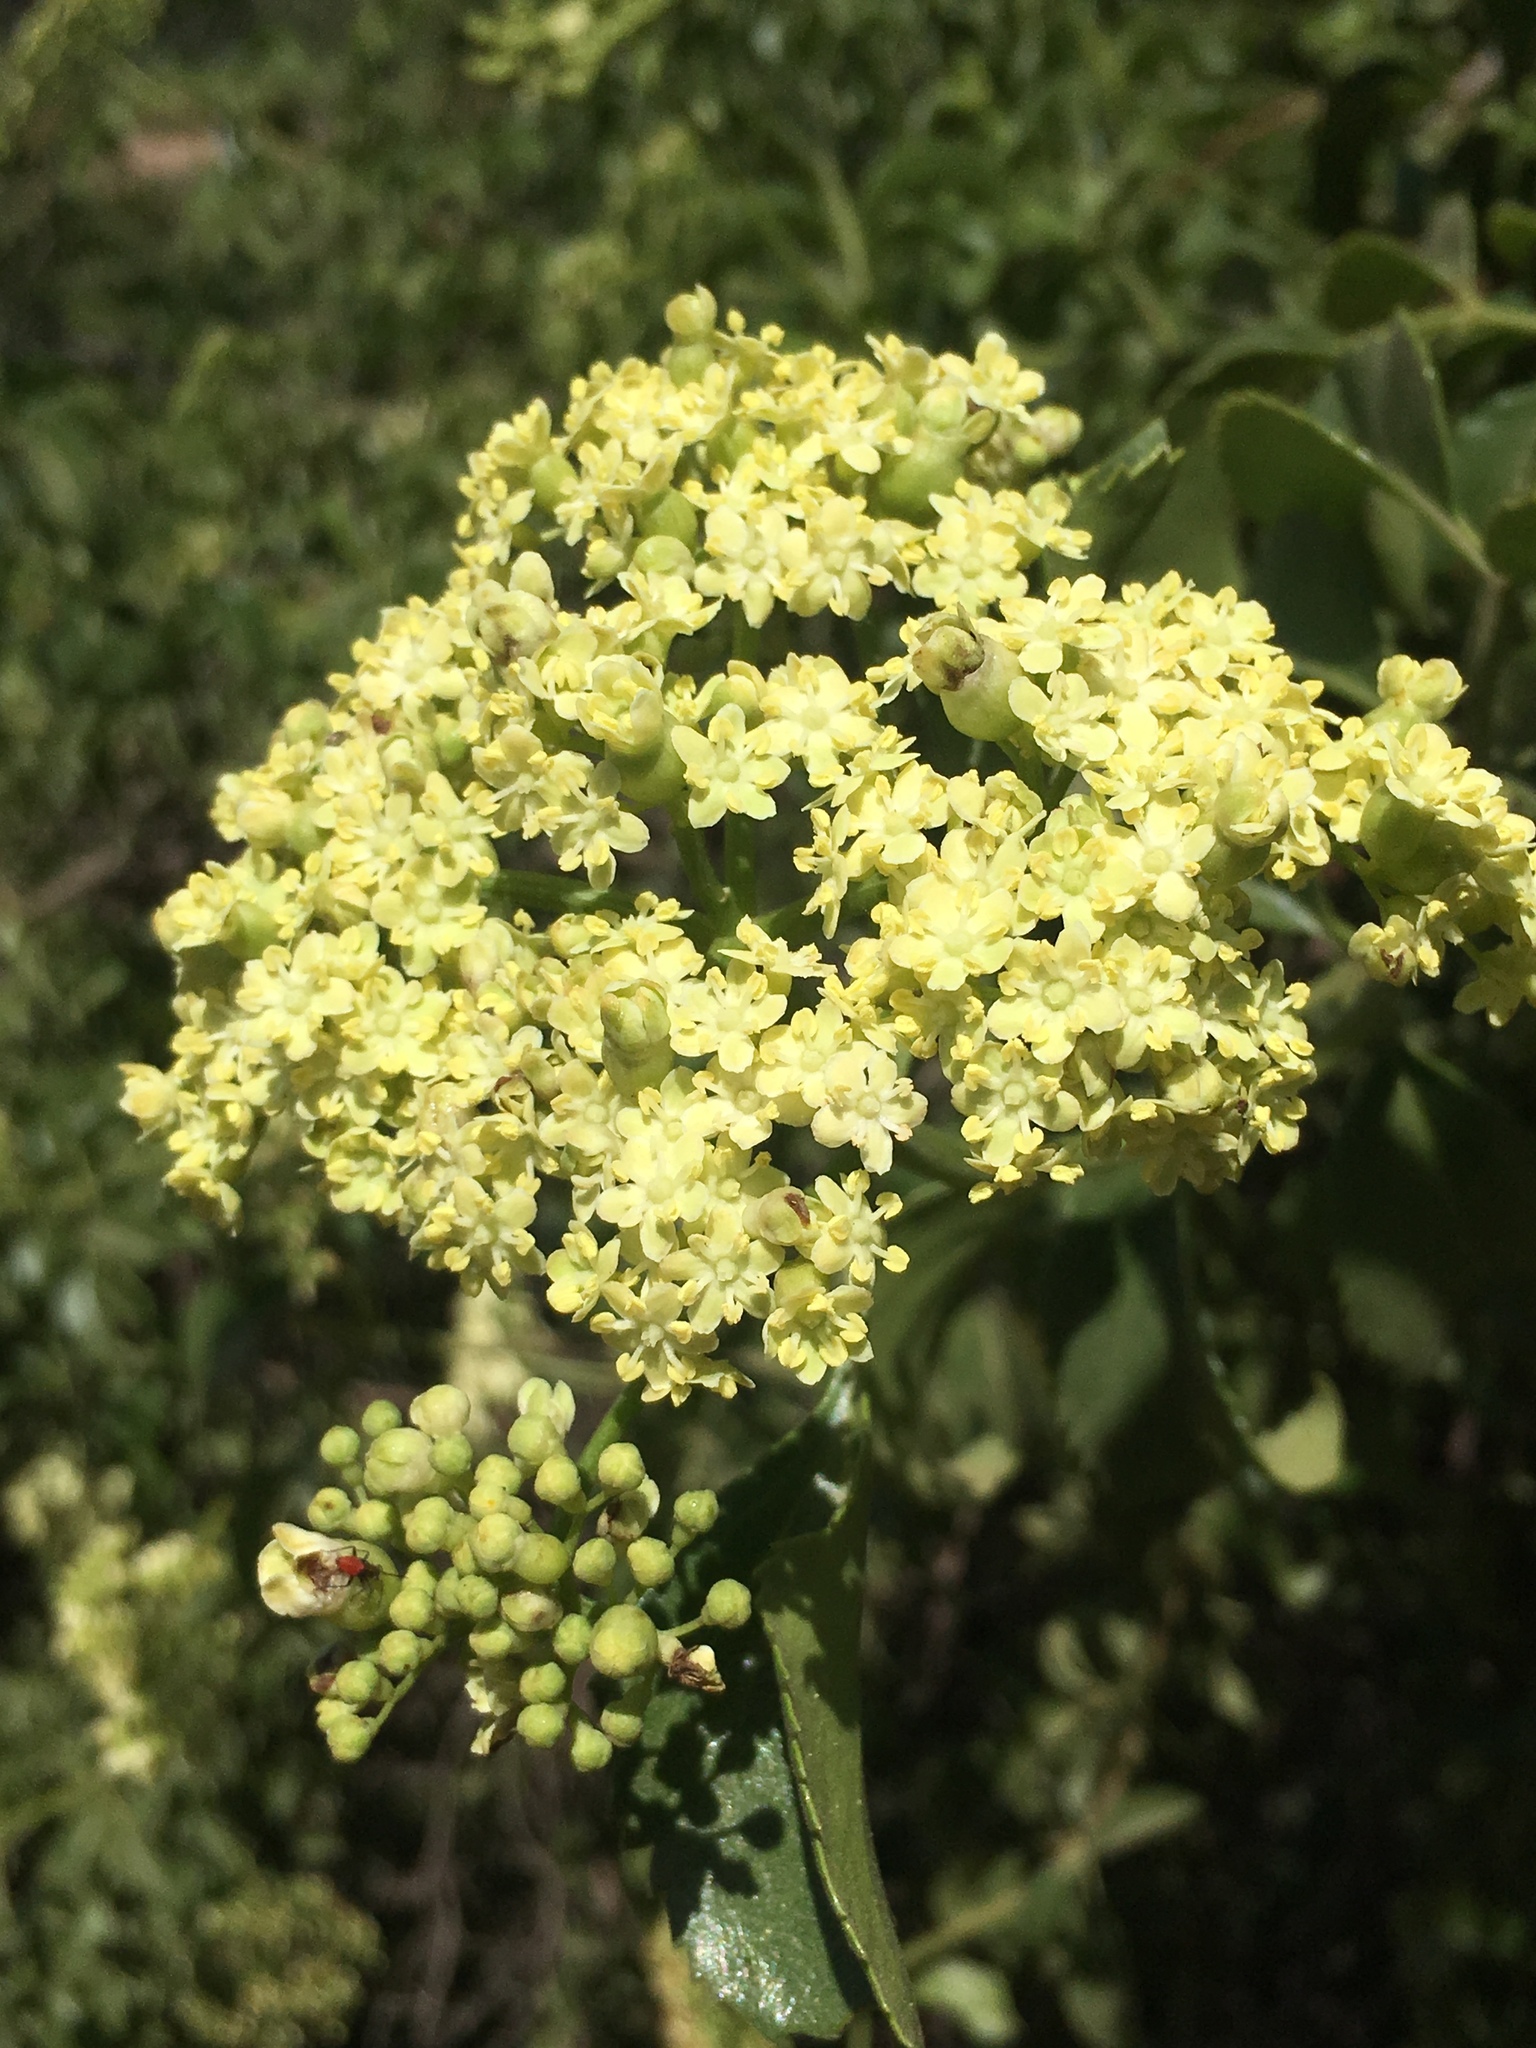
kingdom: Plantae
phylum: Tracheophyta
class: Magnoliopsida
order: Dipsacales
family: Viburnaceae
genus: Sambucus
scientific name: Sambucus cerulea
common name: Blue elder
